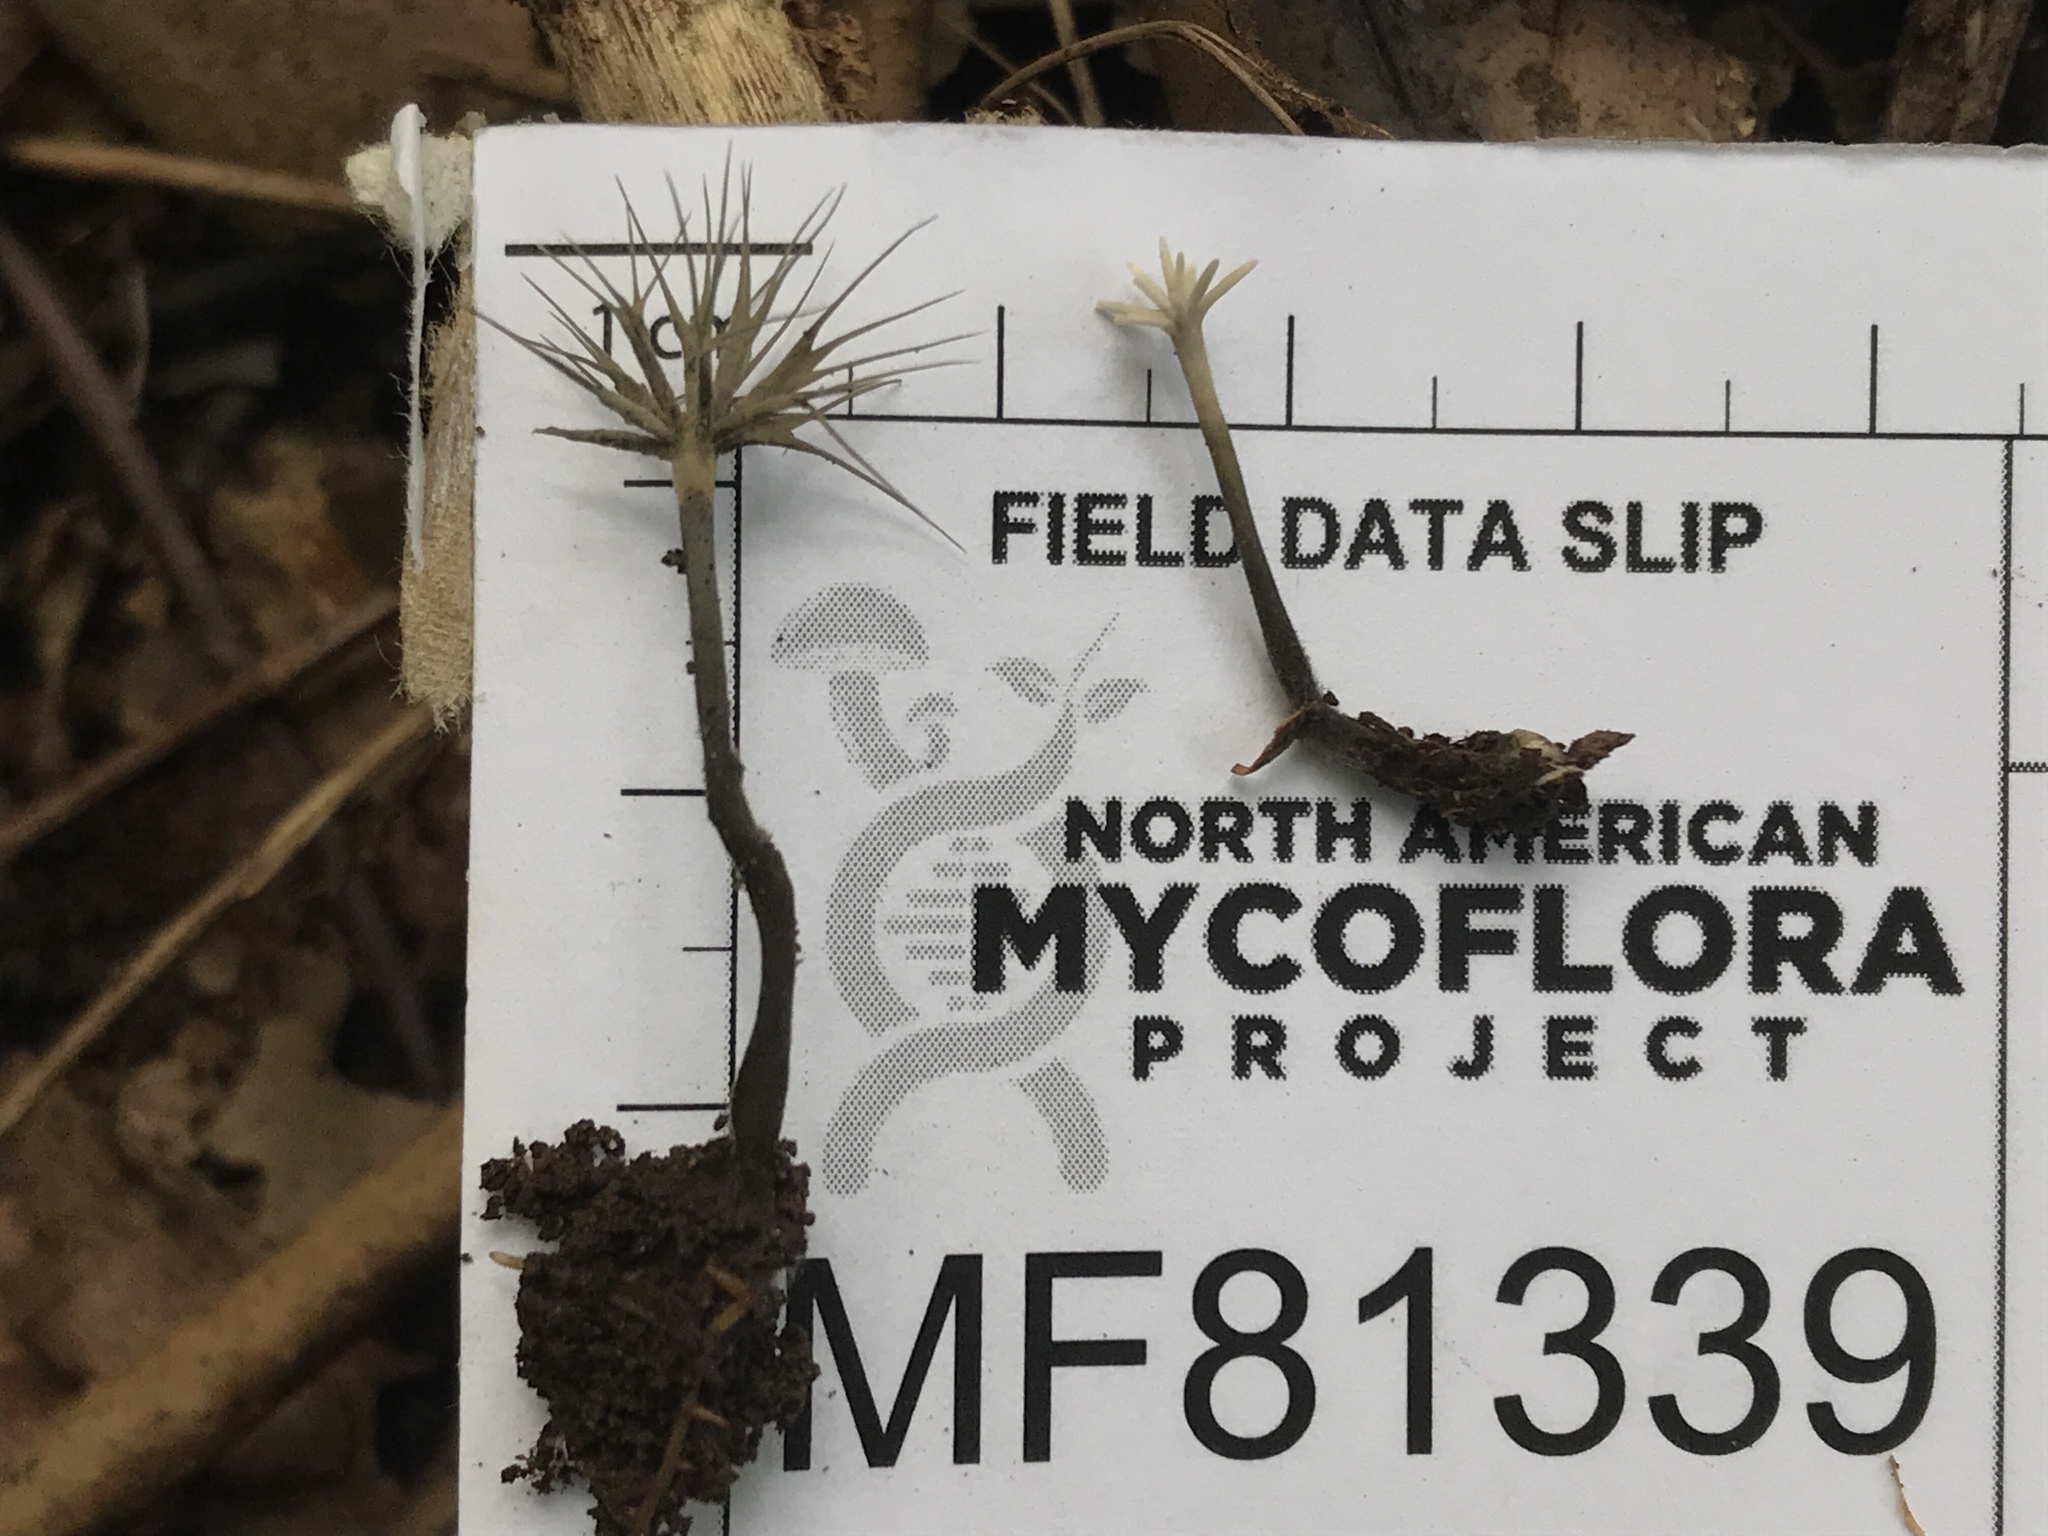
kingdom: Fungi
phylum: Ascomycota
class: Sordariomycetes
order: Xylariales
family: Xylariaceae
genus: Xylaria
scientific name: Xylaria tentaculata
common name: Fairy sparklers
